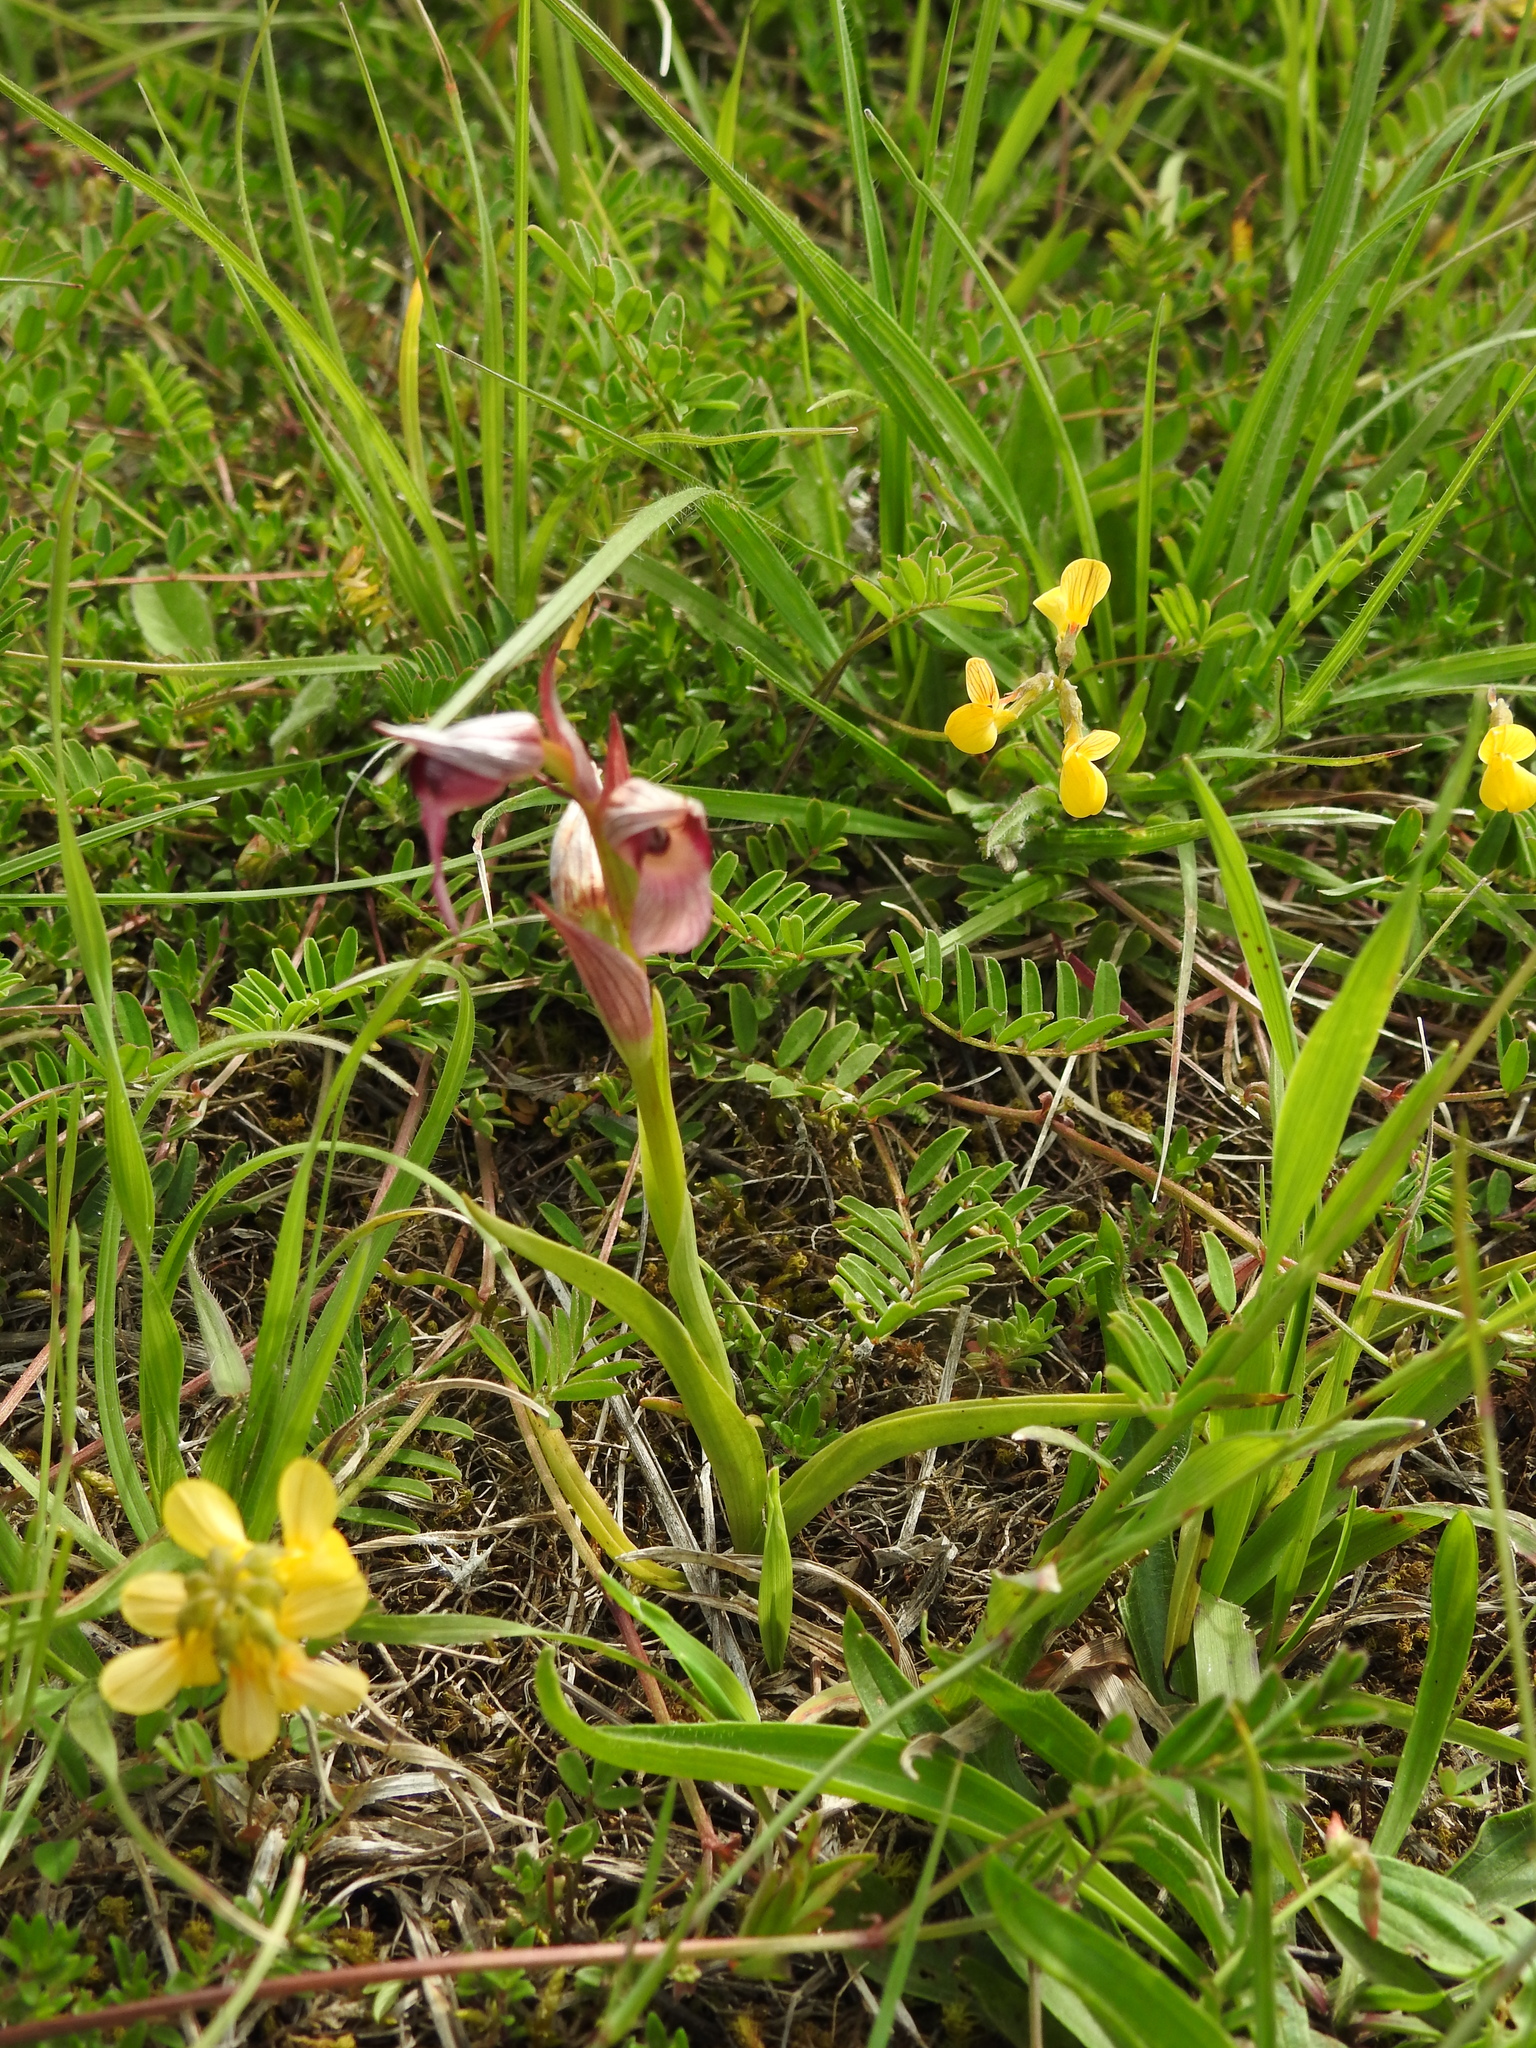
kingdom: Plantae
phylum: Tracheophyta
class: Liliopsida
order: Asparagales
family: Orchidaceae
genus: Serapias
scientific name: Serapias lingua
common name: Tongue-orchid
